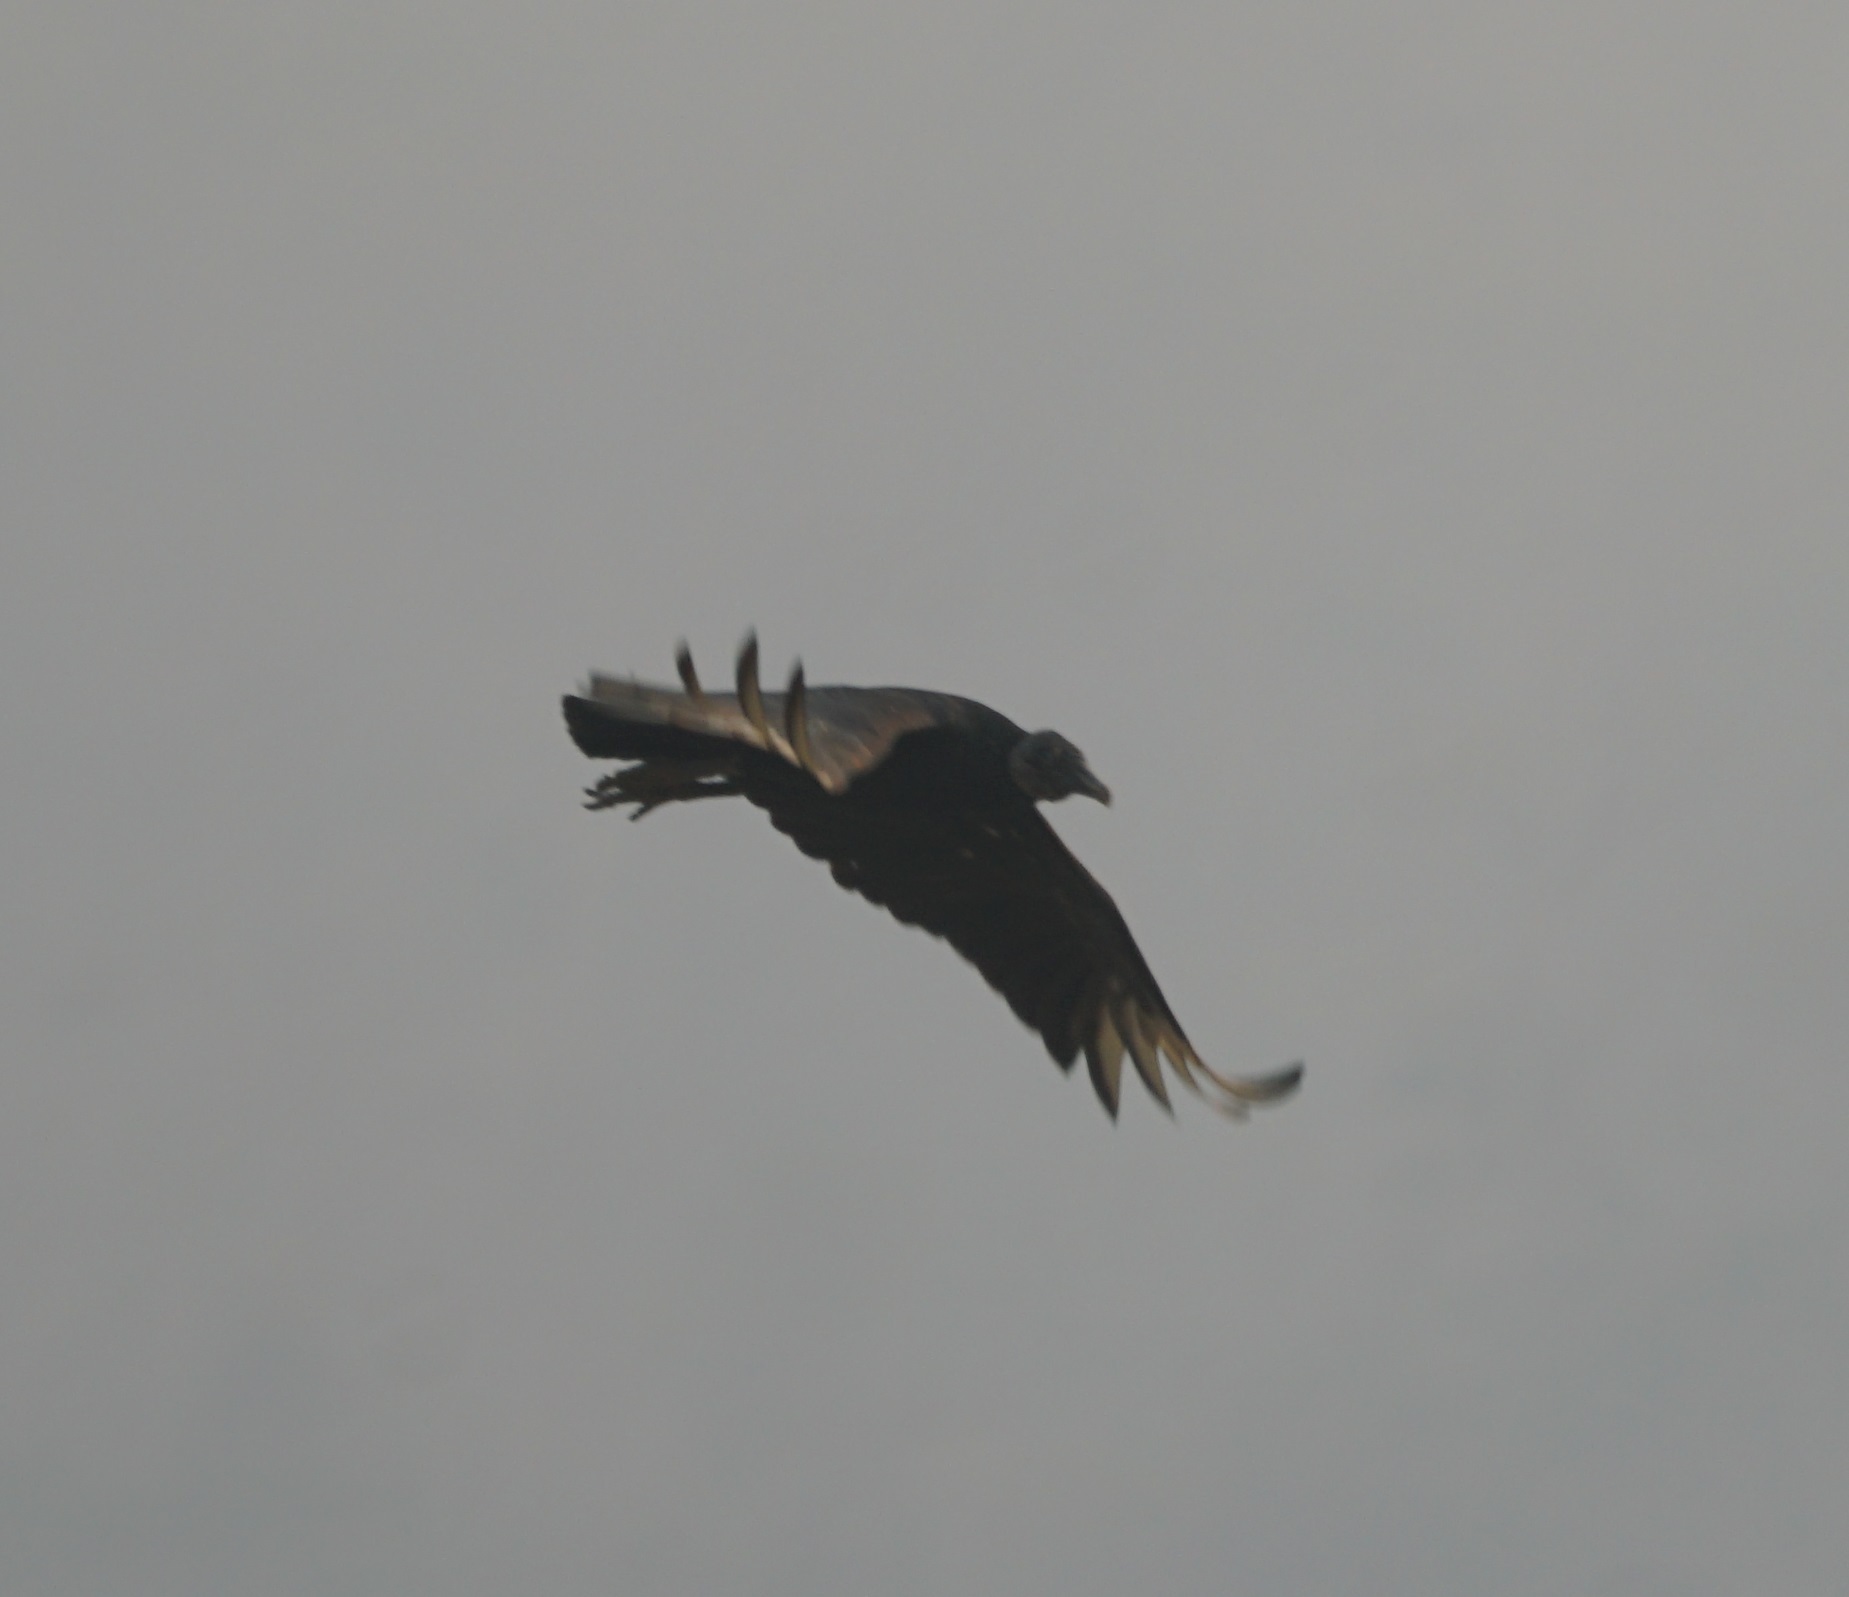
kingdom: Animalia
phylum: Chordata
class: Aves
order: Accipitriformes
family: Cathartidae
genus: Coragyps
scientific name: Coragyps atratus
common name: Black vulture
